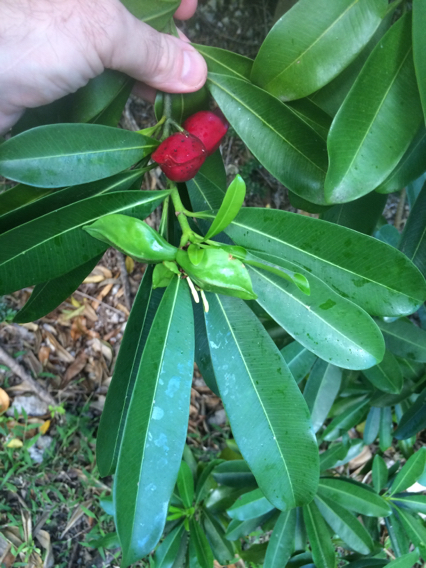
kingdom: Plantae
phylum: Tracheophyta
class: Magnoliopsida
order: Gentianales
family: Apocynaceae
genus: Ochrosia
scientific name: Ochrosia mariannensis
